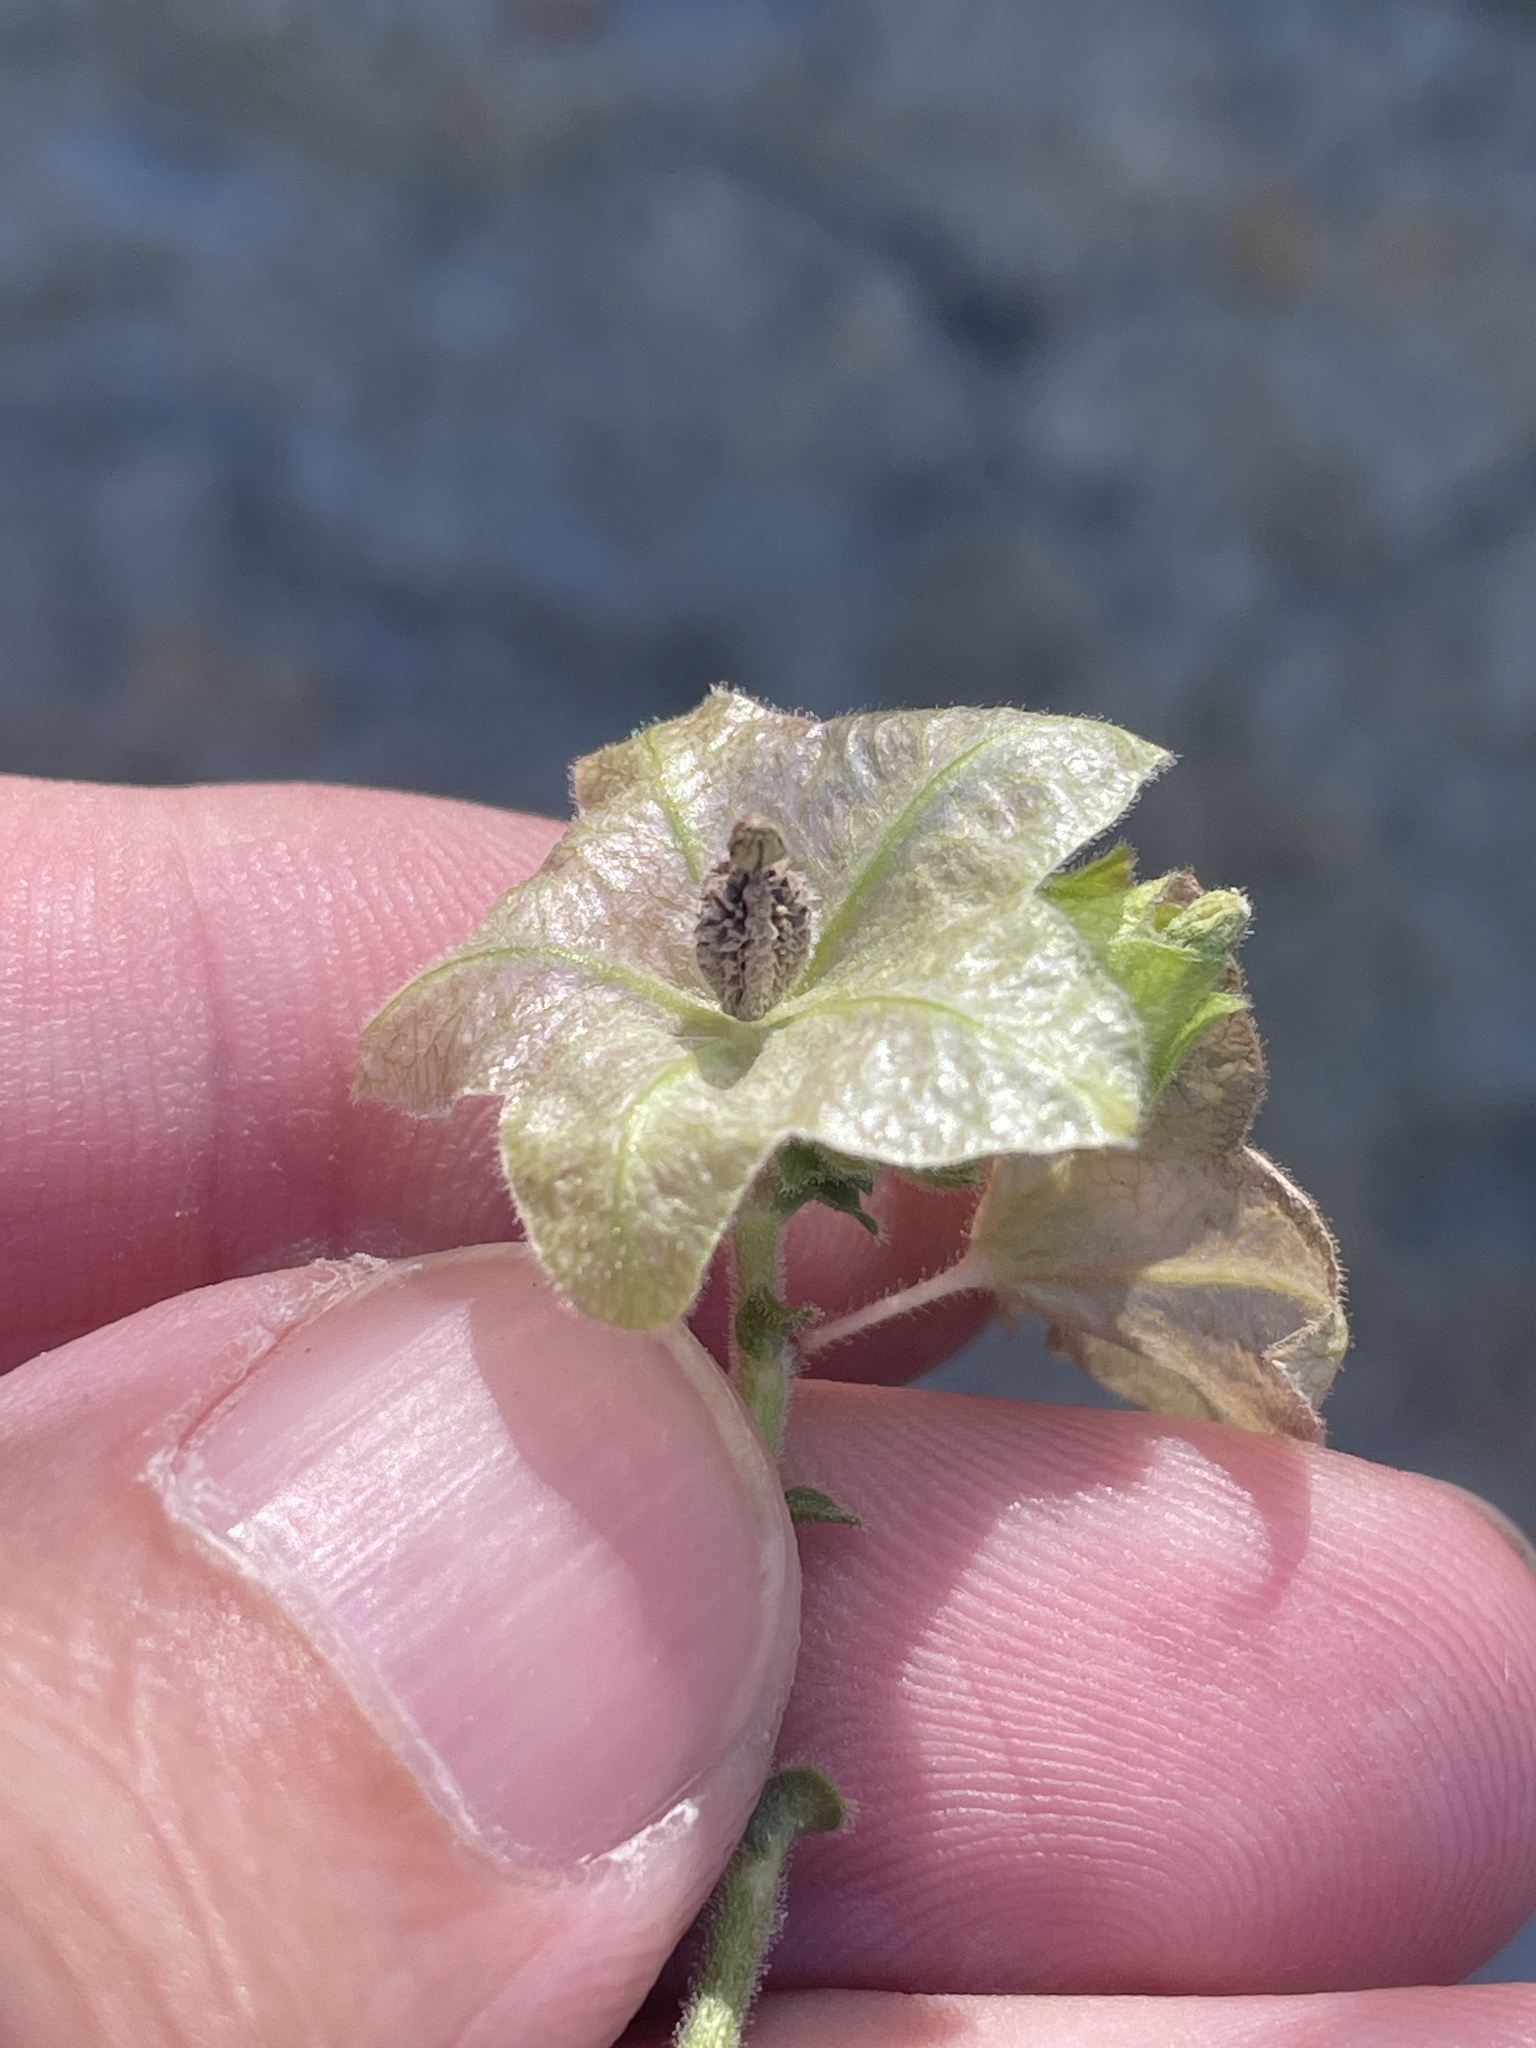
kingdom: Plantae
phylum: Tracheophyta
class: Magnoliopsida
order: Caryophyllales
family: Nyctaginaceae
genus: Mirabilis
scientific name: Mirabilis albida
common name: Hairy four-o'clock
